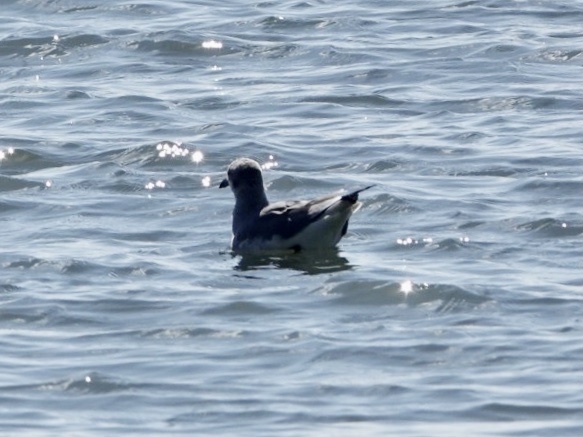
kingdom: Animalia
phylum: Chordata
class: Aves
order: Charadriiformes
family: Laridae
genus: Leucophaeus
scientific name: Leucophaeus atricilla
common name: Laughing gull
